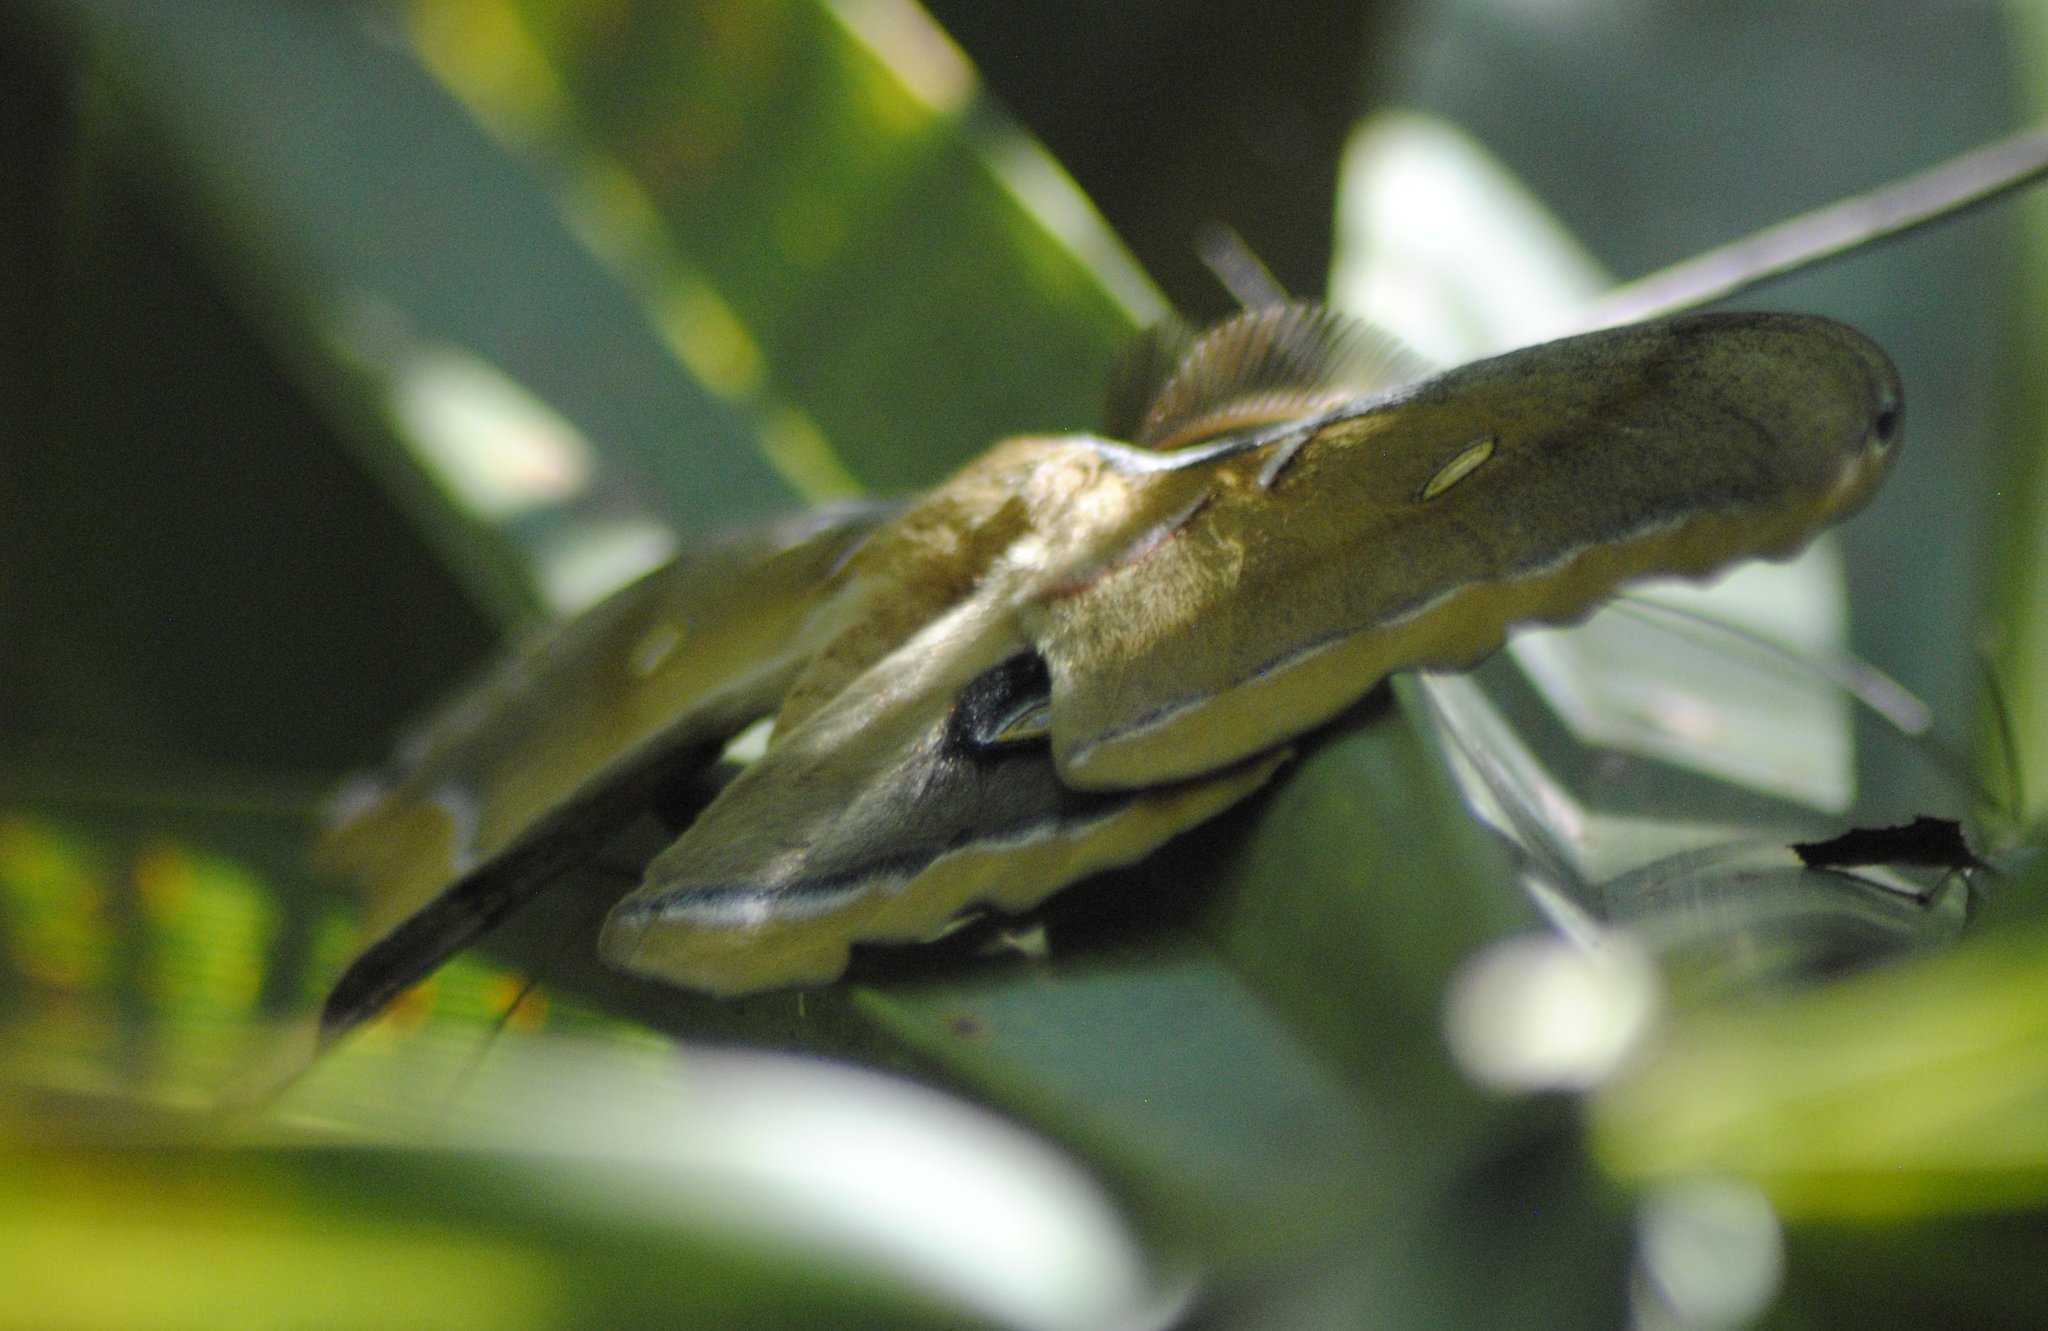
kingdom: Animalia
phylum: Arthropoda
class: Insecta
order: Lepidoptera
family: Saturniidae
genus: Antheraea
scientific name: Antheraea polyphemus
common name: Polyphemus moth
